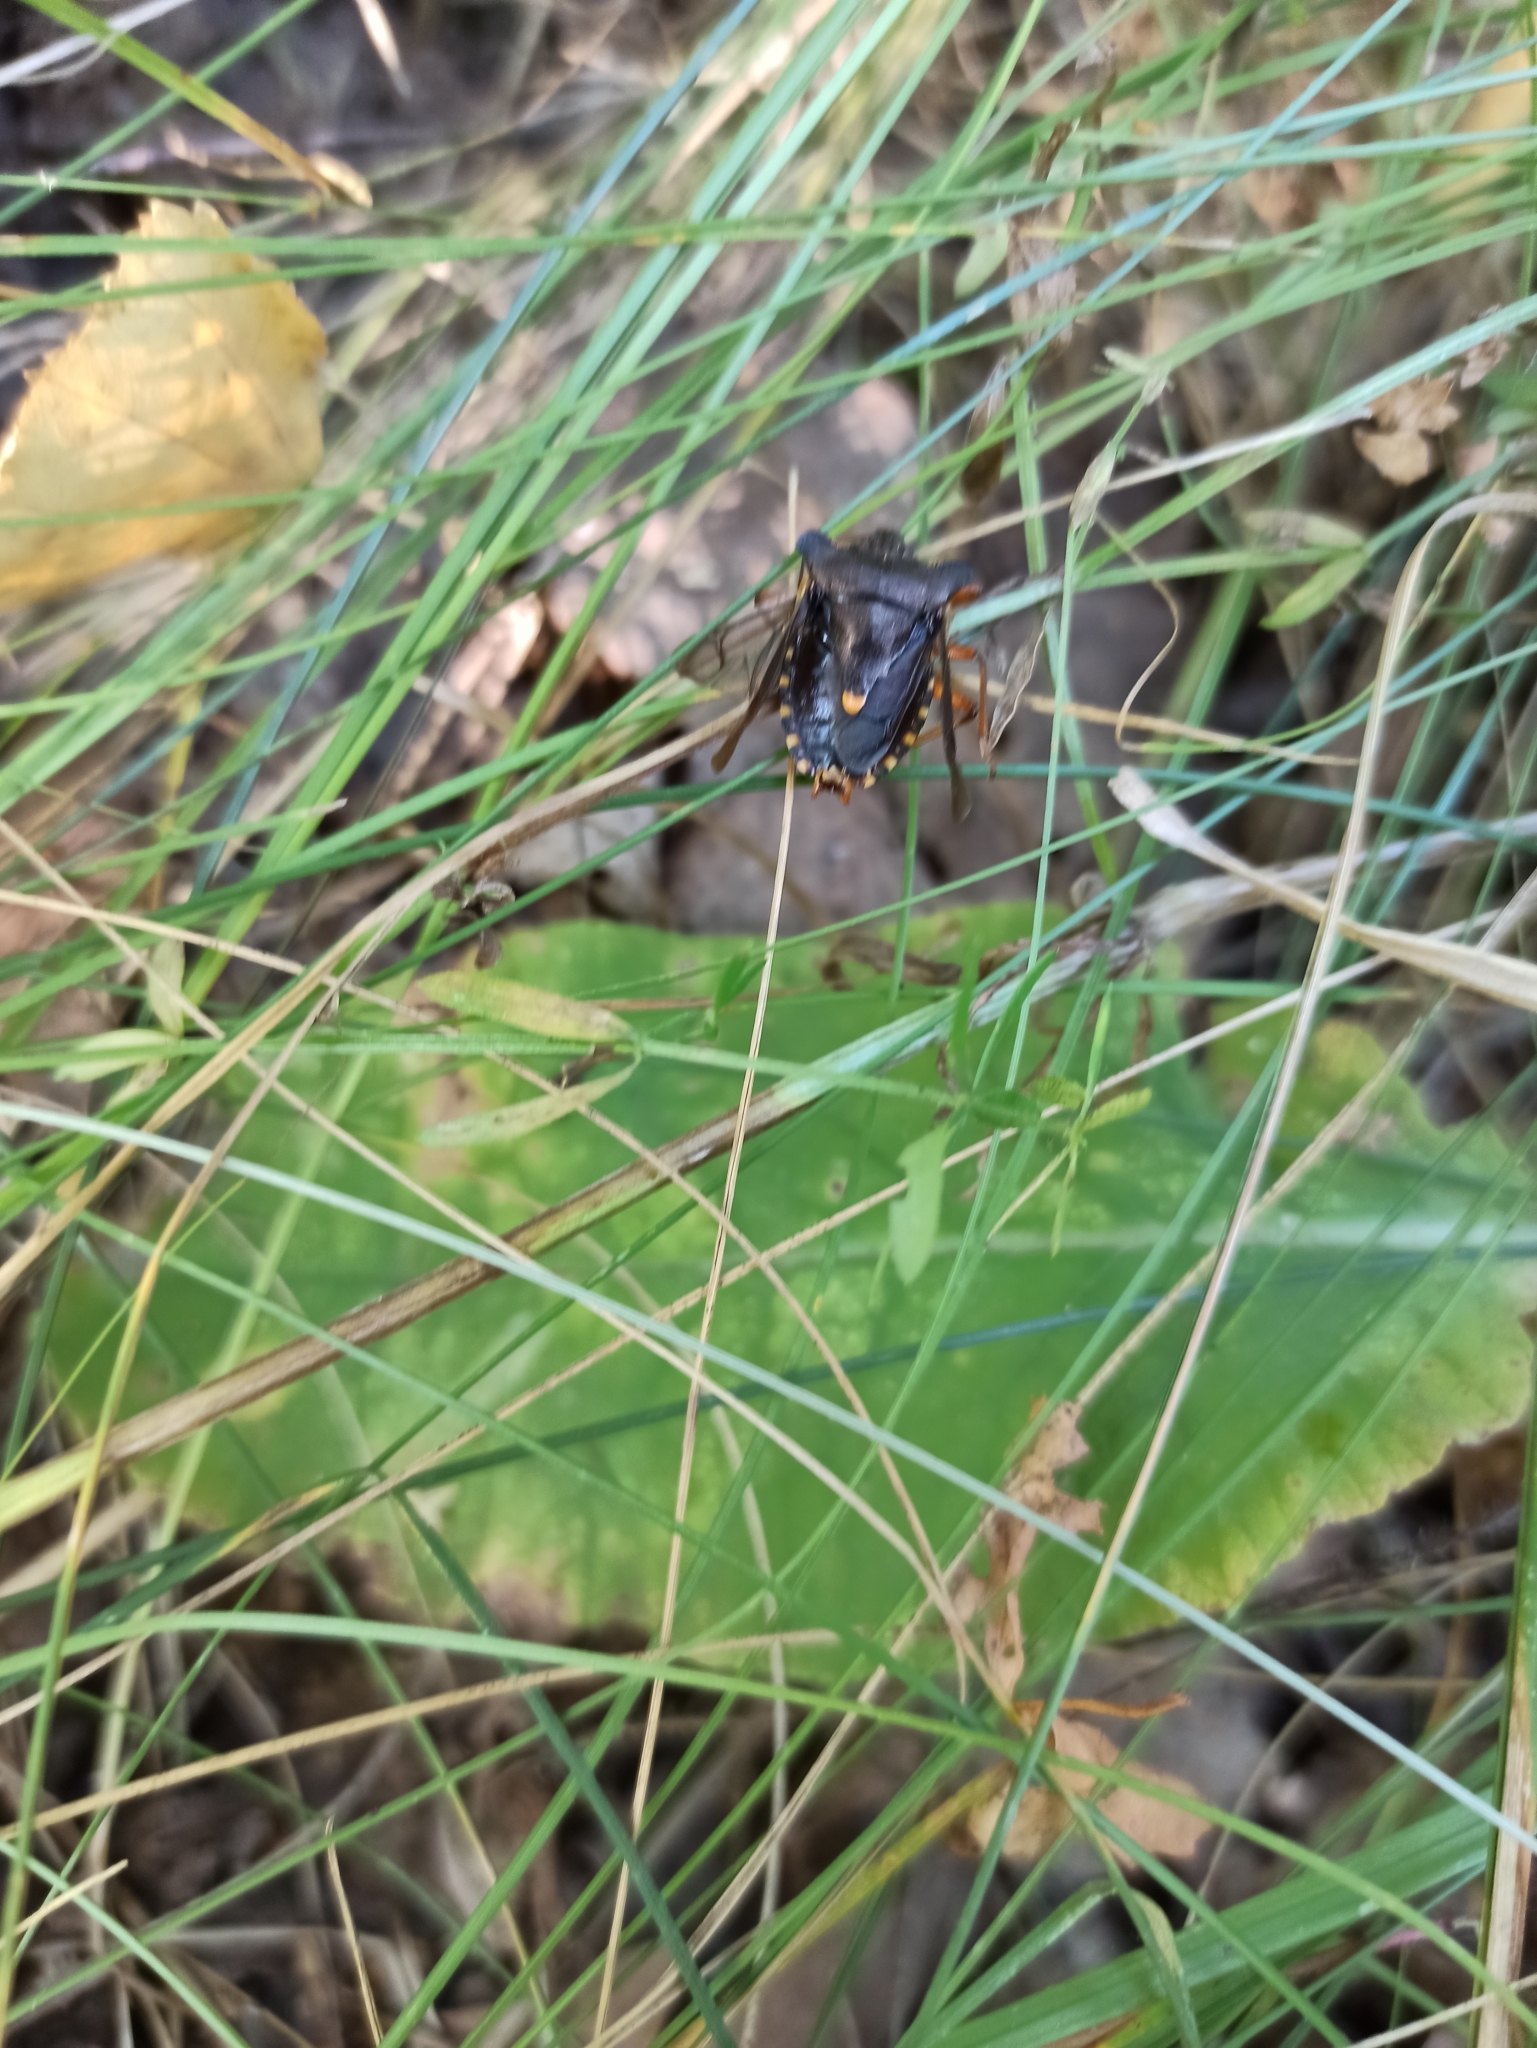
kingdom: Animalia
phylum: Arthropoda
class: Insecta
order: Hemiptera
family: Pentatomidae
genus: Pentatoma
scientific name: Pentatoma rufipes
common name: Forest bug
